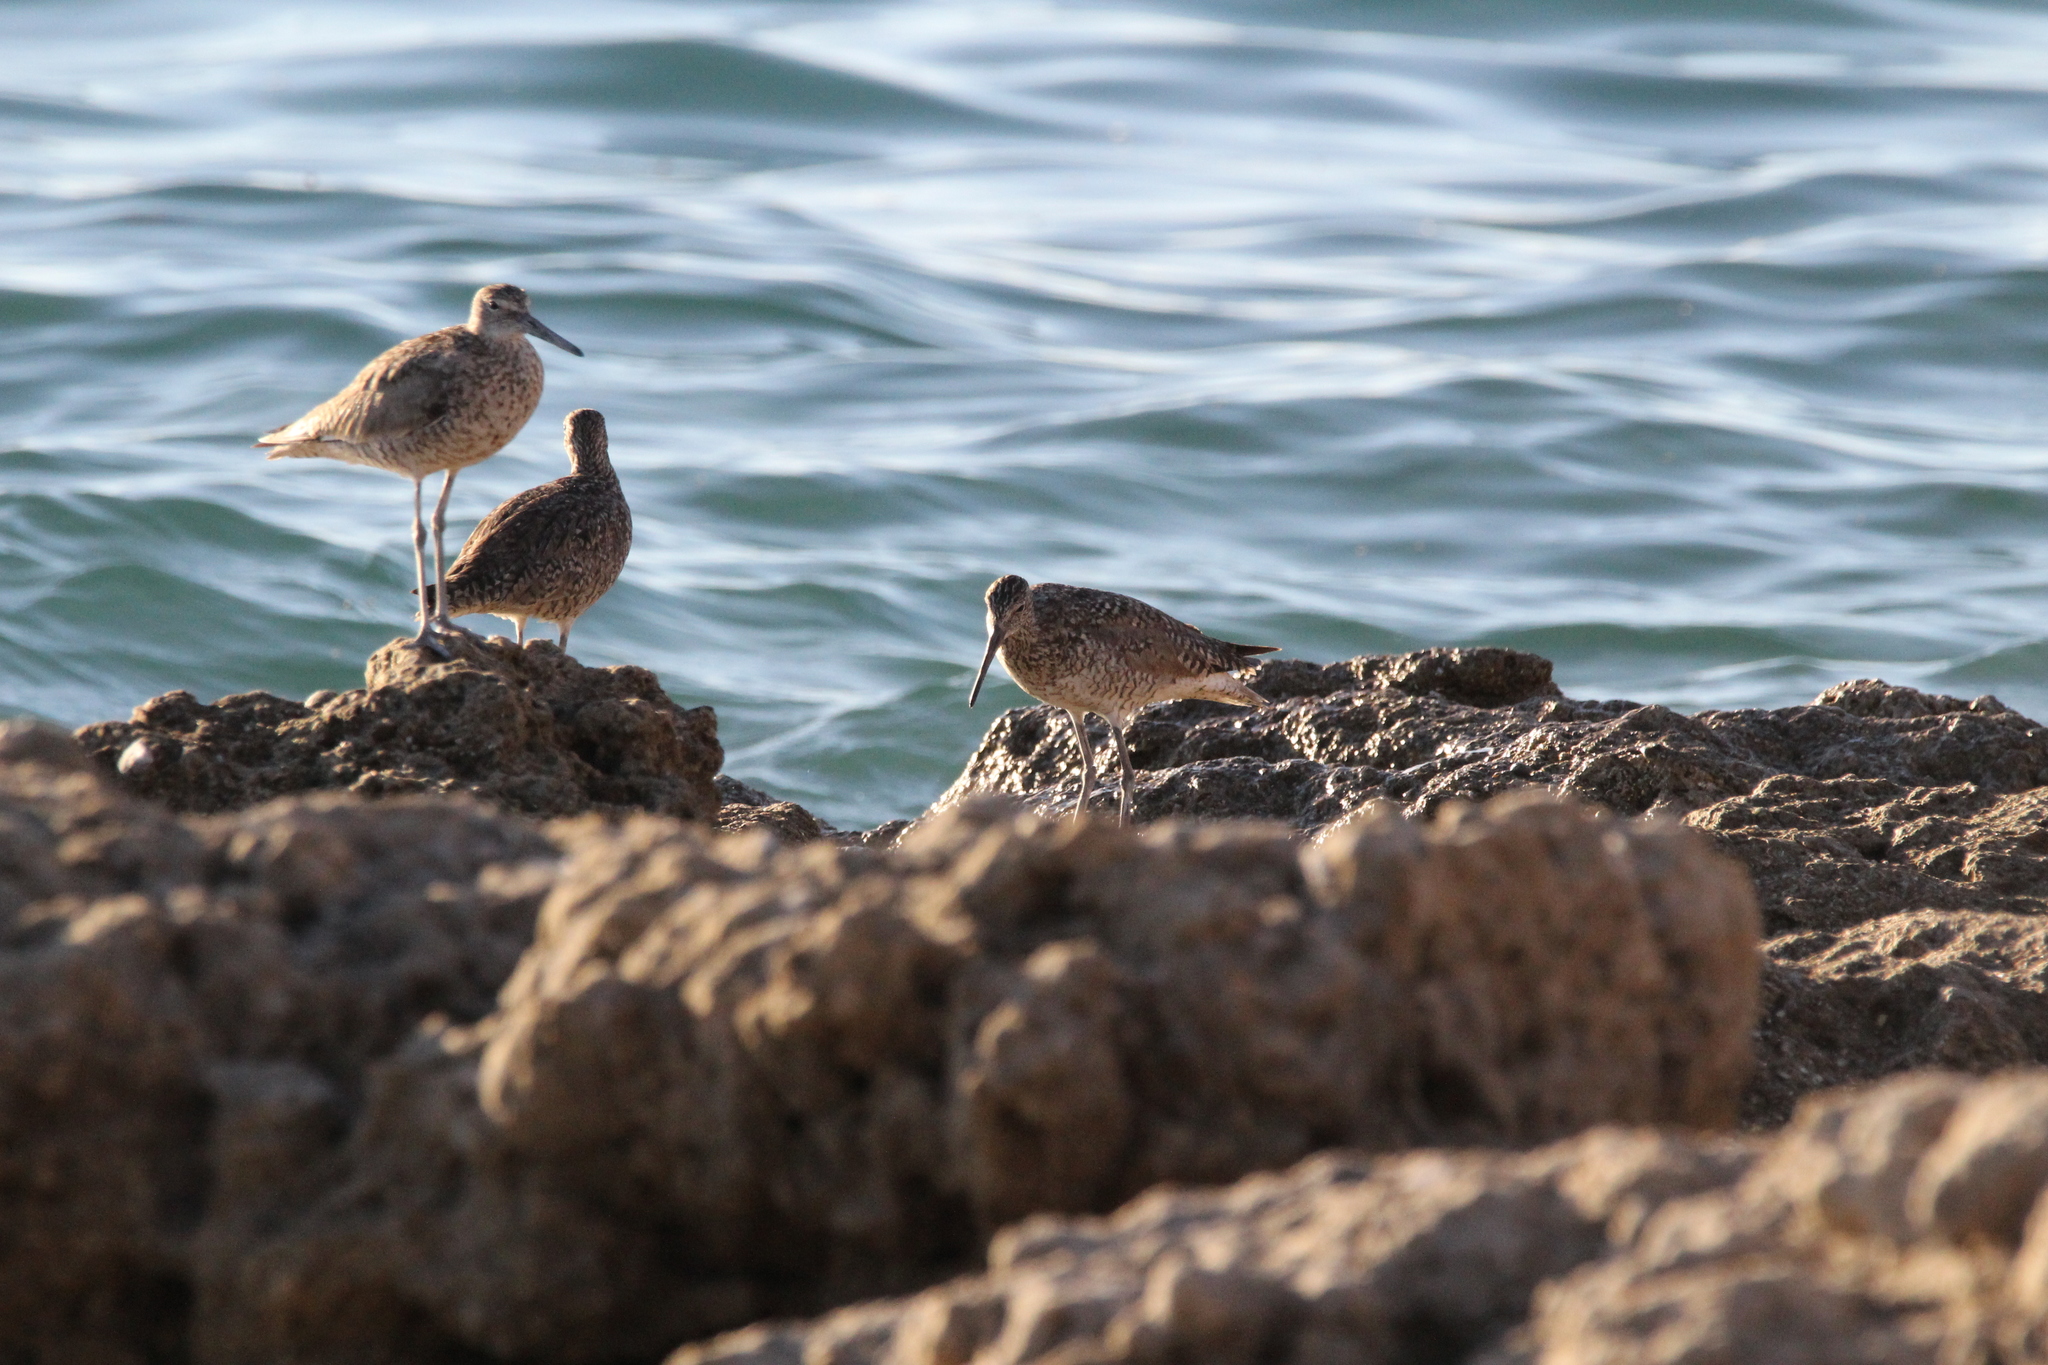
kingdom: Animalia
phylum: Chordata
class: Aves
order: Charadriiformes
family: Scolopacidae
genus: Tringa
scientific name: Tringa semipalmata
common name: Willet
